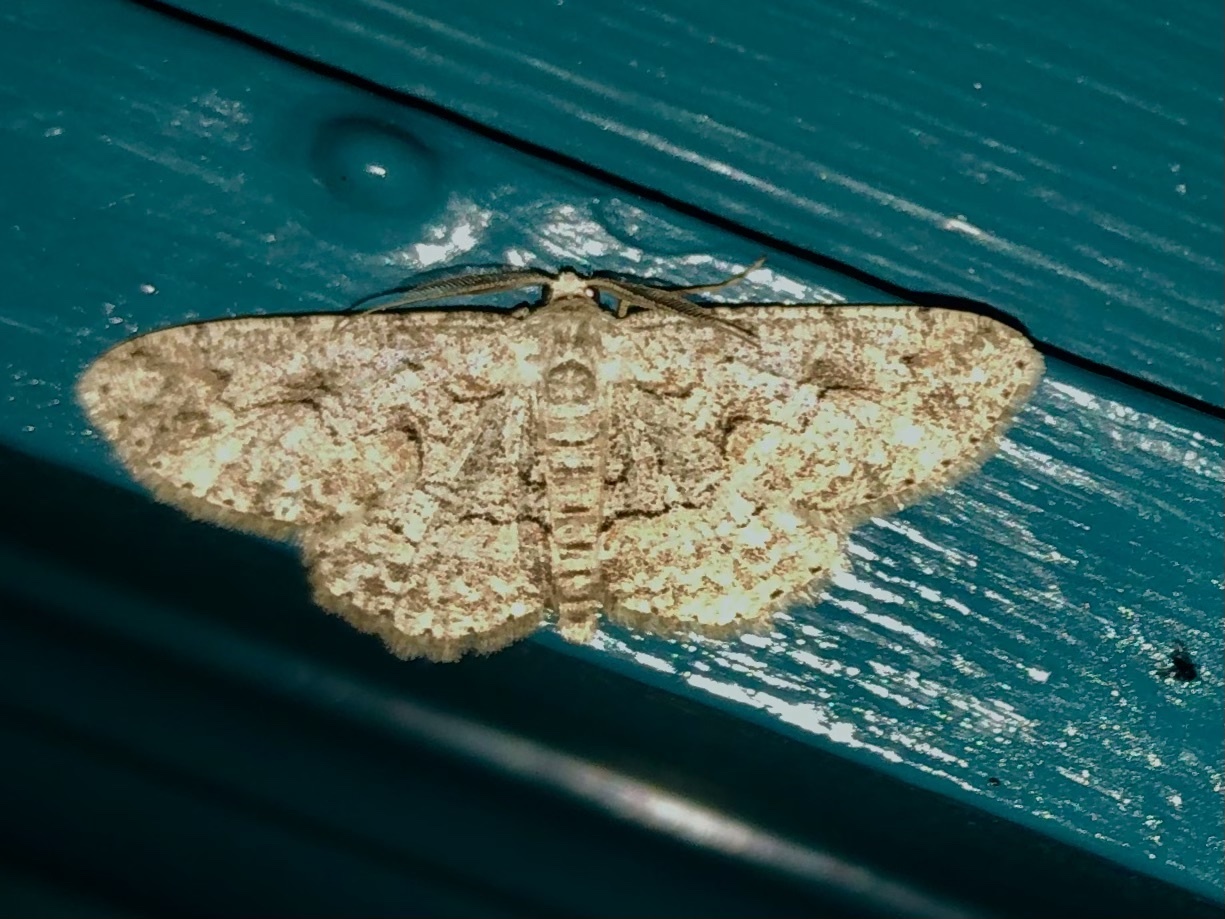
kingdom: Animalia
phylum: Arthropoda
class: Insecta
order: Lepidoptera
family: Geometridae
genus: Iridopsis
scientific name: Iridopsis defectaria
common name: Brown-shaded gray
